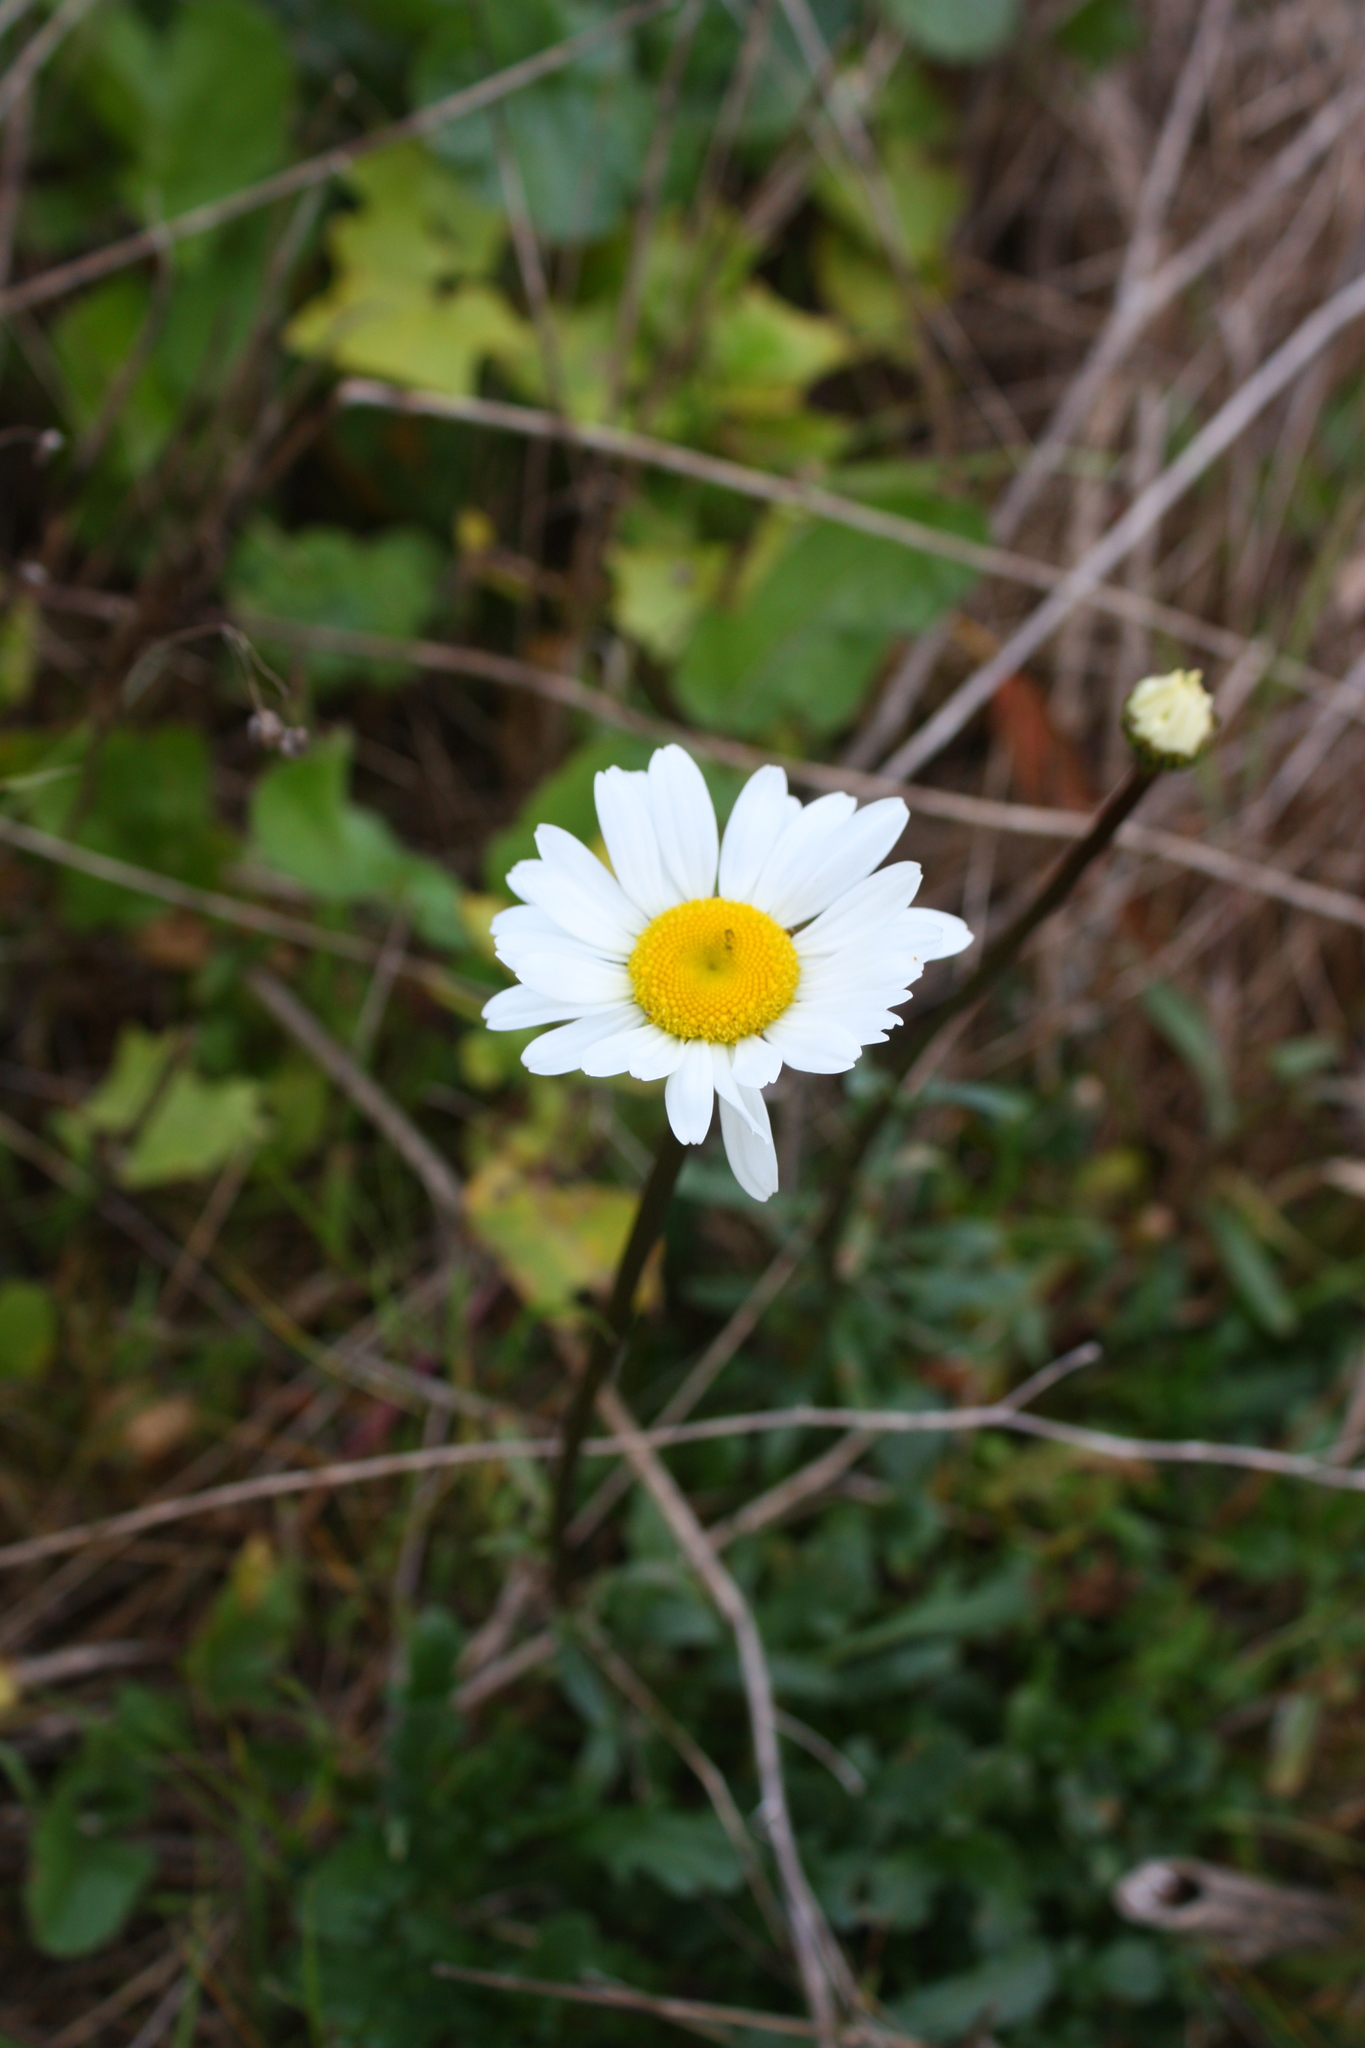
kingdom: Plantae
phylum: Tracheophyta
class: Magnoliopsida
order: Asterales
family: Asteraceae
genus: Leucanthemum
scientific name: Leucanthemum vulgare
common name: Oxeye daisy
